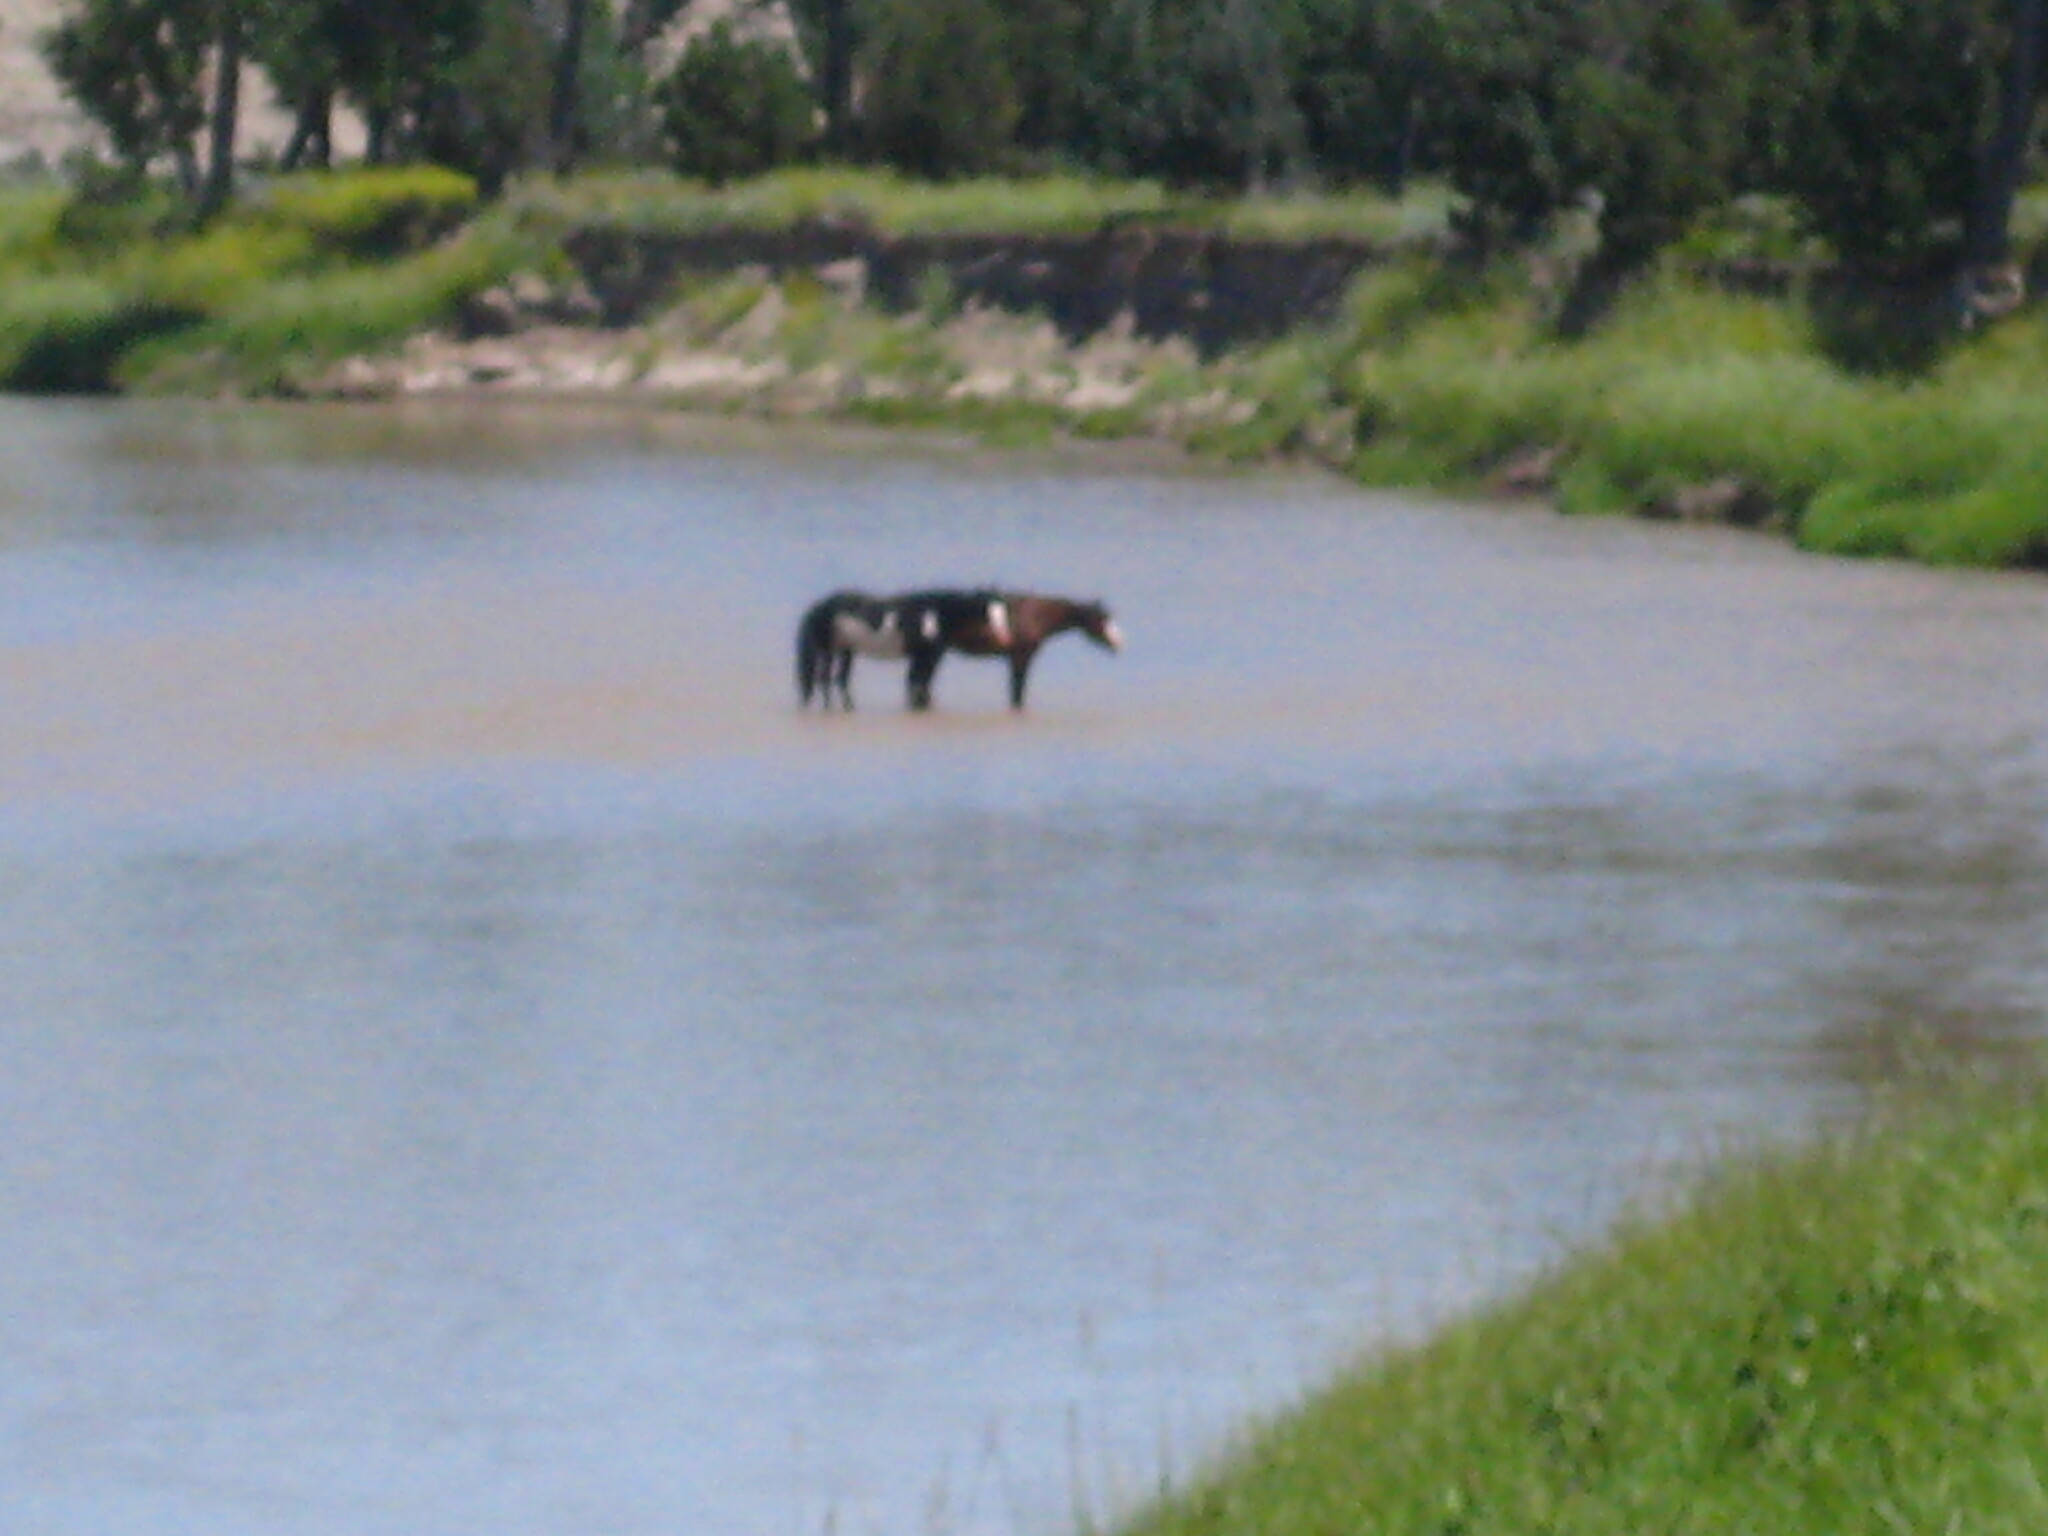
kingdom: Animalia
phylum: Chordata
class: Mammalia
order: Perissodactyla
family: Equidae
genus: Equus
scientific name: Equus caballus
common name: Horse
